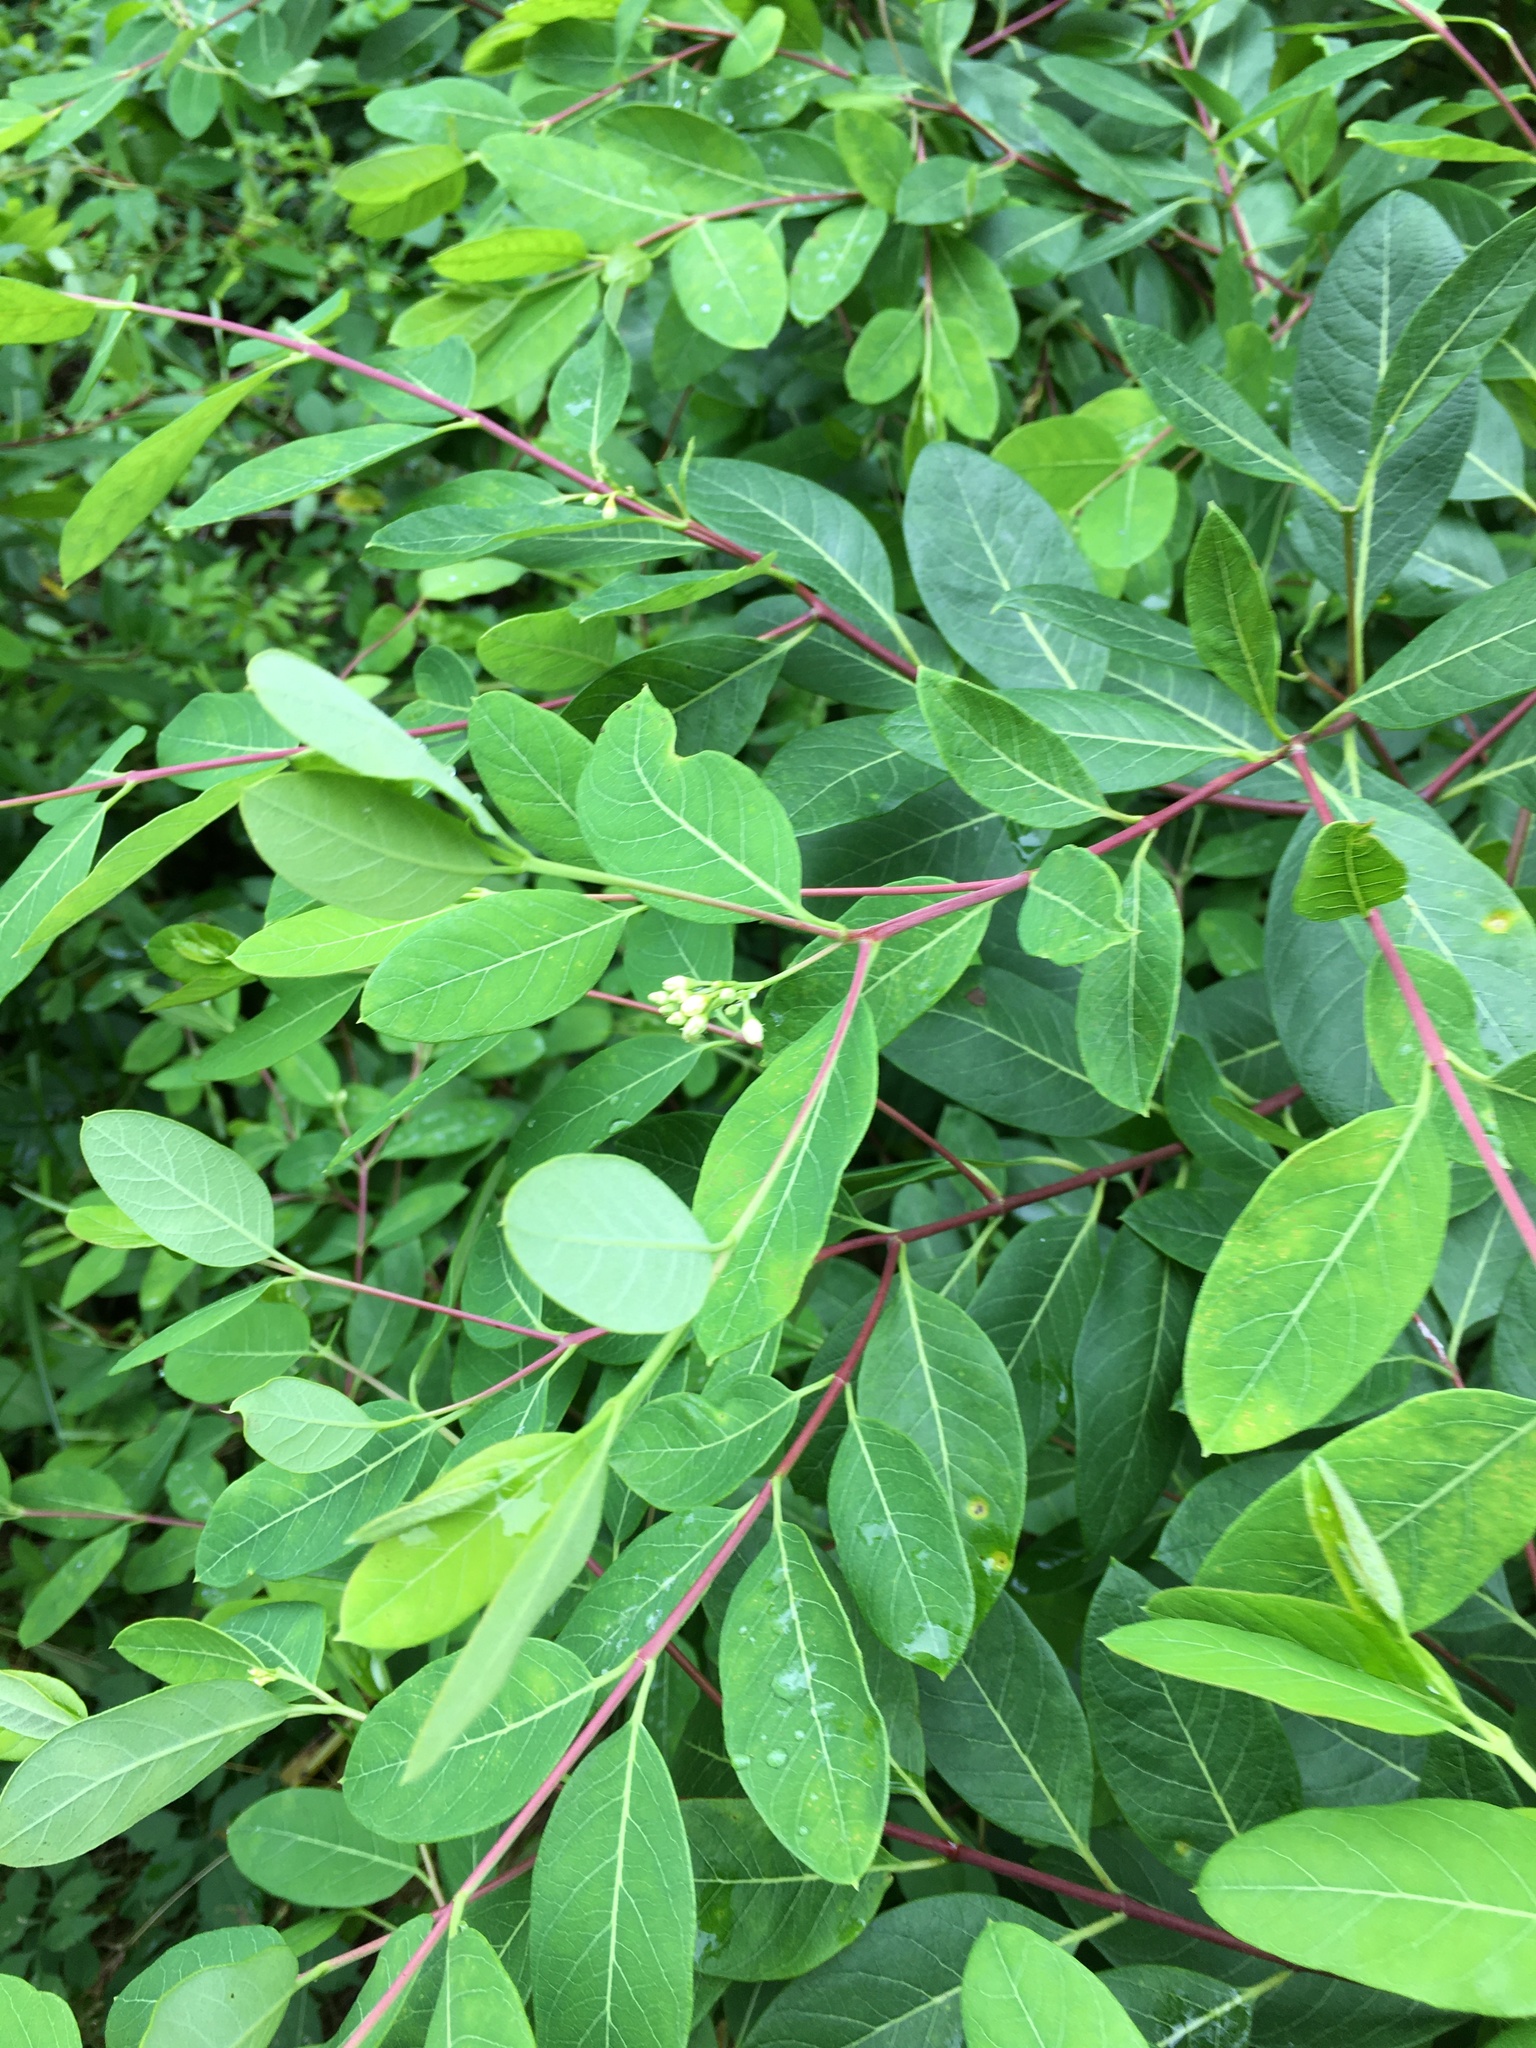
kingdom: Plantae
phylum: Tracheophyta
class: Magnoliopsida
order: Gentianales
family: Apocynaceae
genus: Apocynum
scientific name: Apocynum cannabinum
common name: Hemp dogbane
